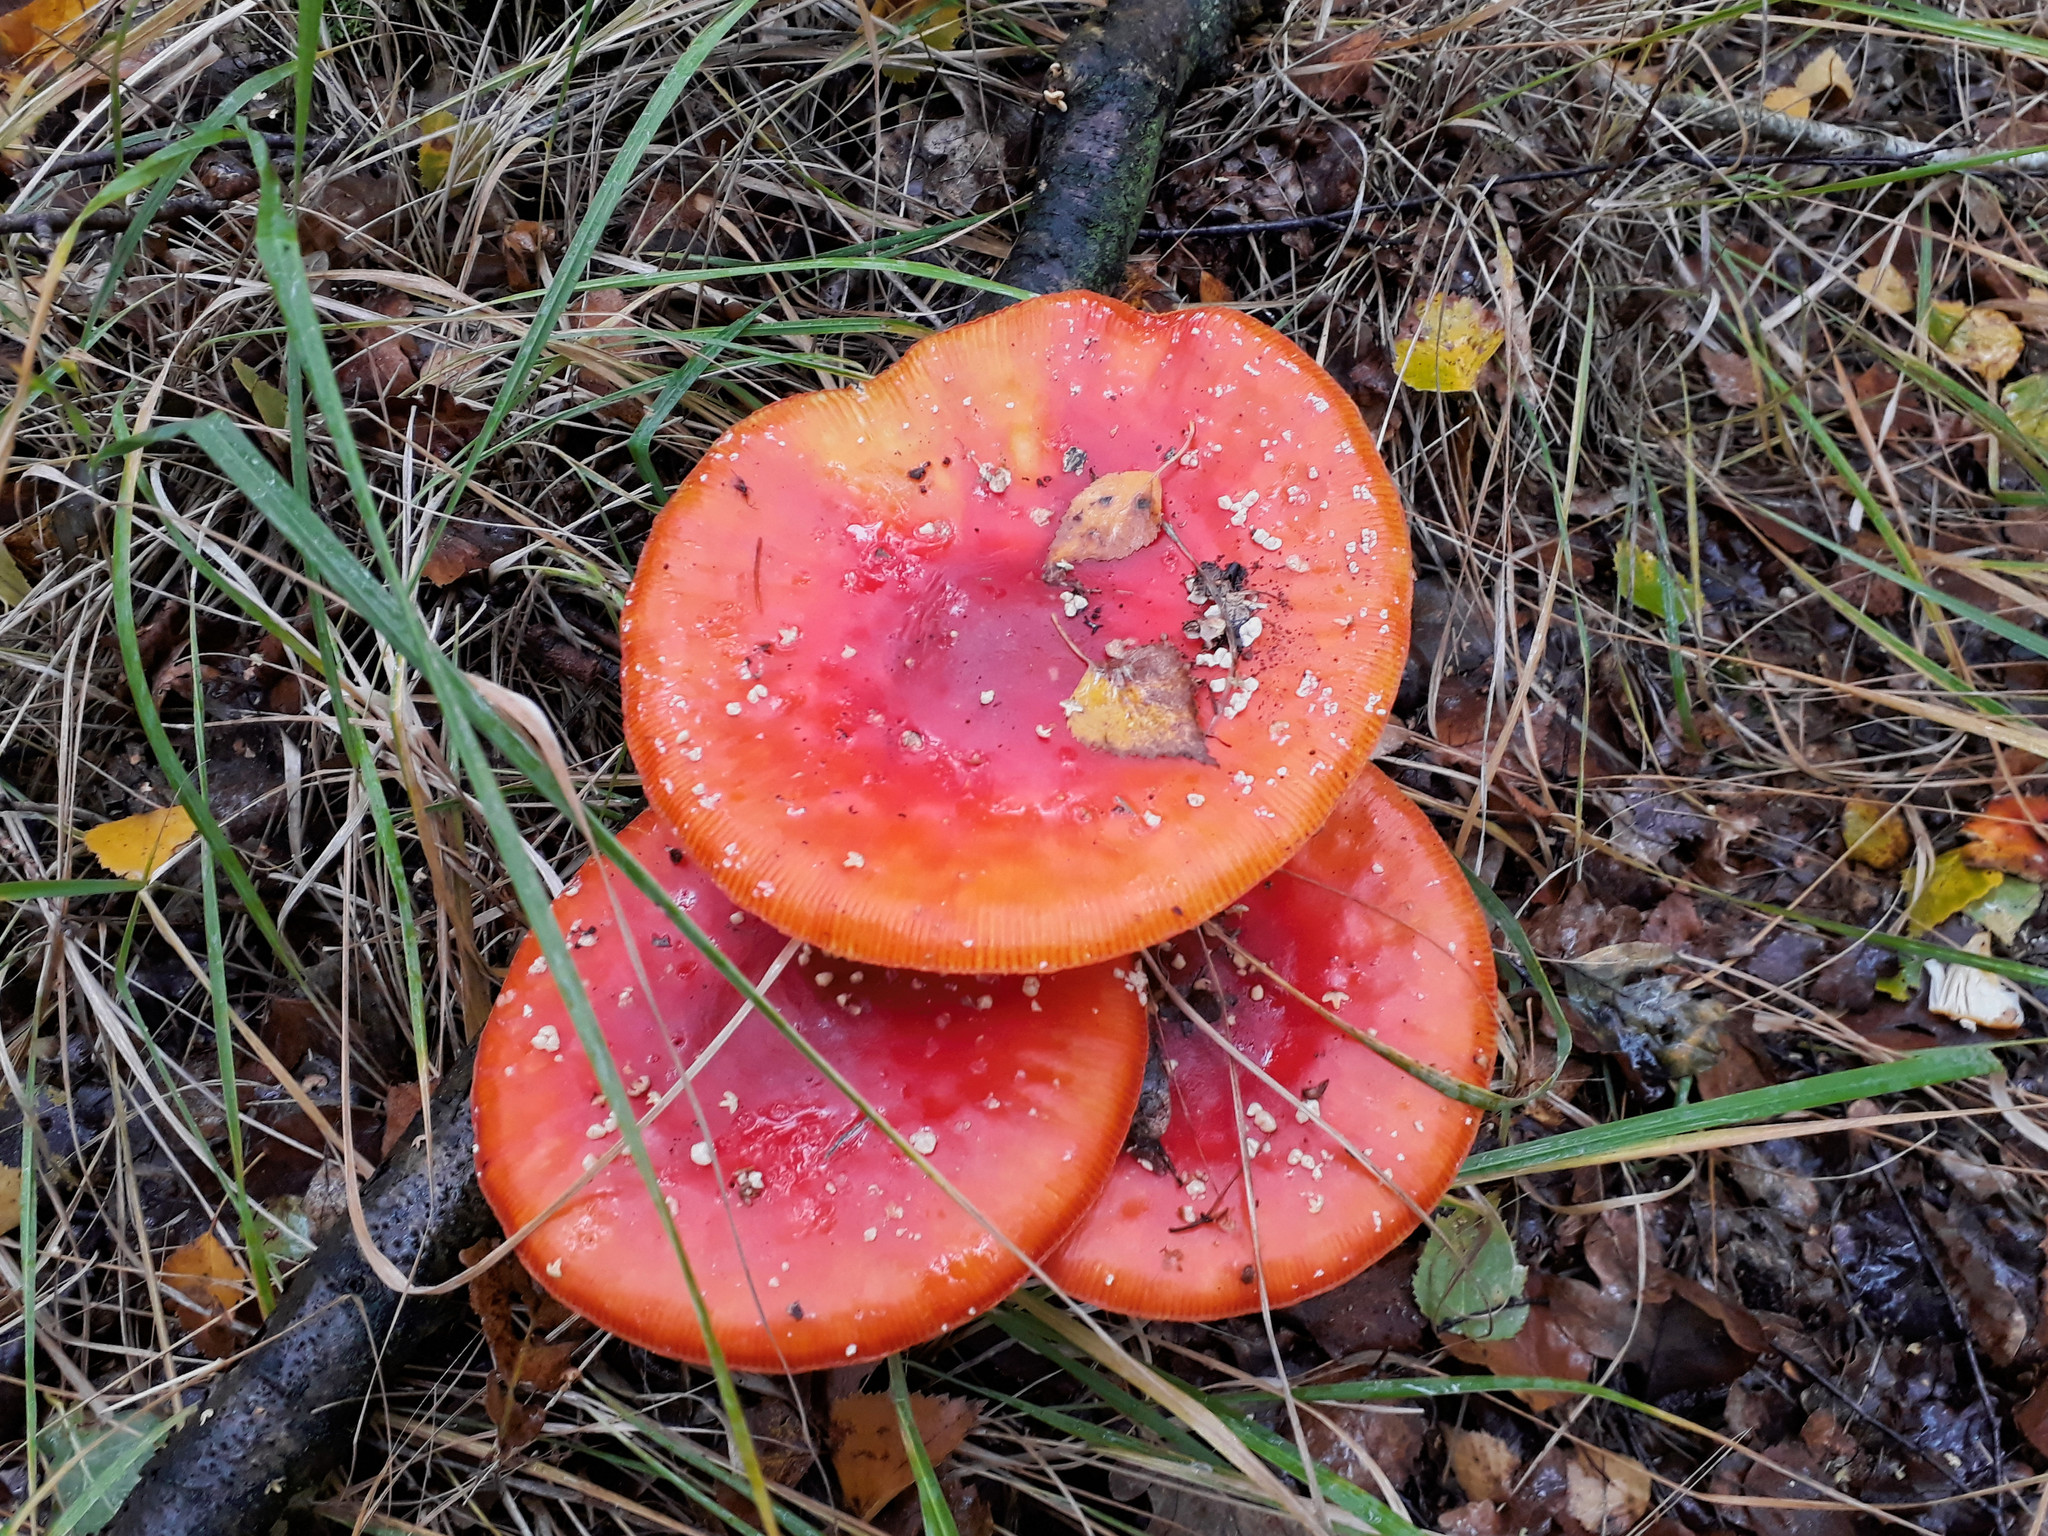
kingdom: Fungi
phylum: Basidiomycota
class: Agaricomycetes
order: Agaricales
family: Amanitaceae
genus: Amanita
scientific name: Amanita muscaria
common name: Fly agaric
